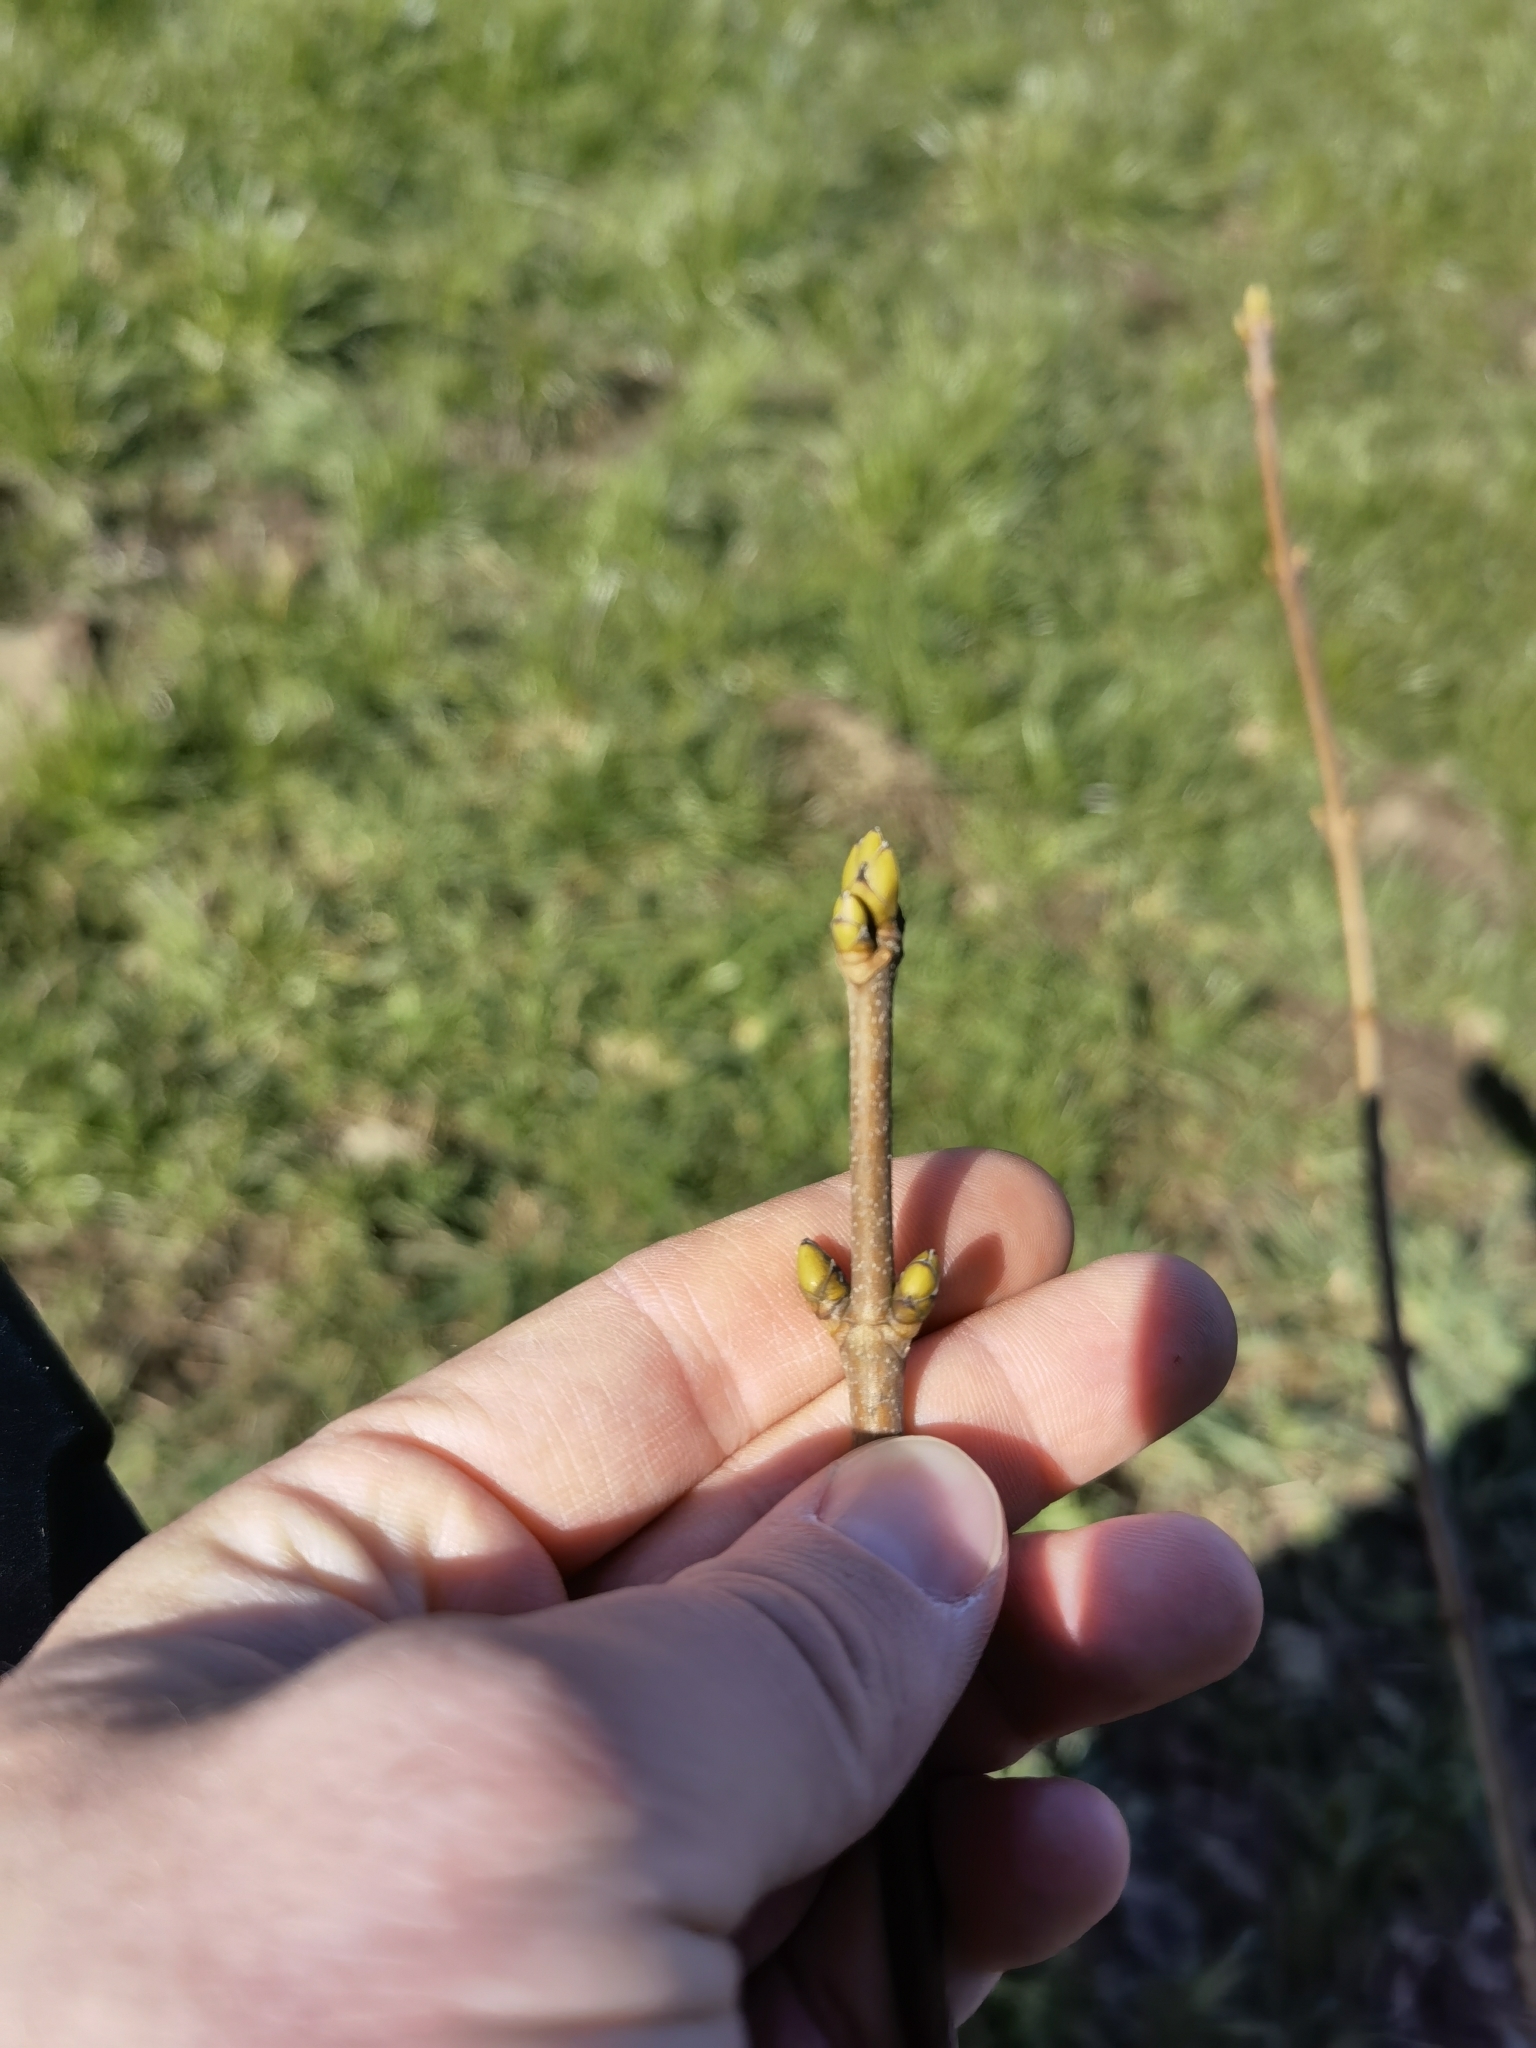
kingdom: Plantae
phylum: Tracheophyta
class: Magnoliopsida
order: Sapindales
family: Sapindaceae
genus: Acer
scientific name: Acer pseudoplatanus
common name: Sycamore
